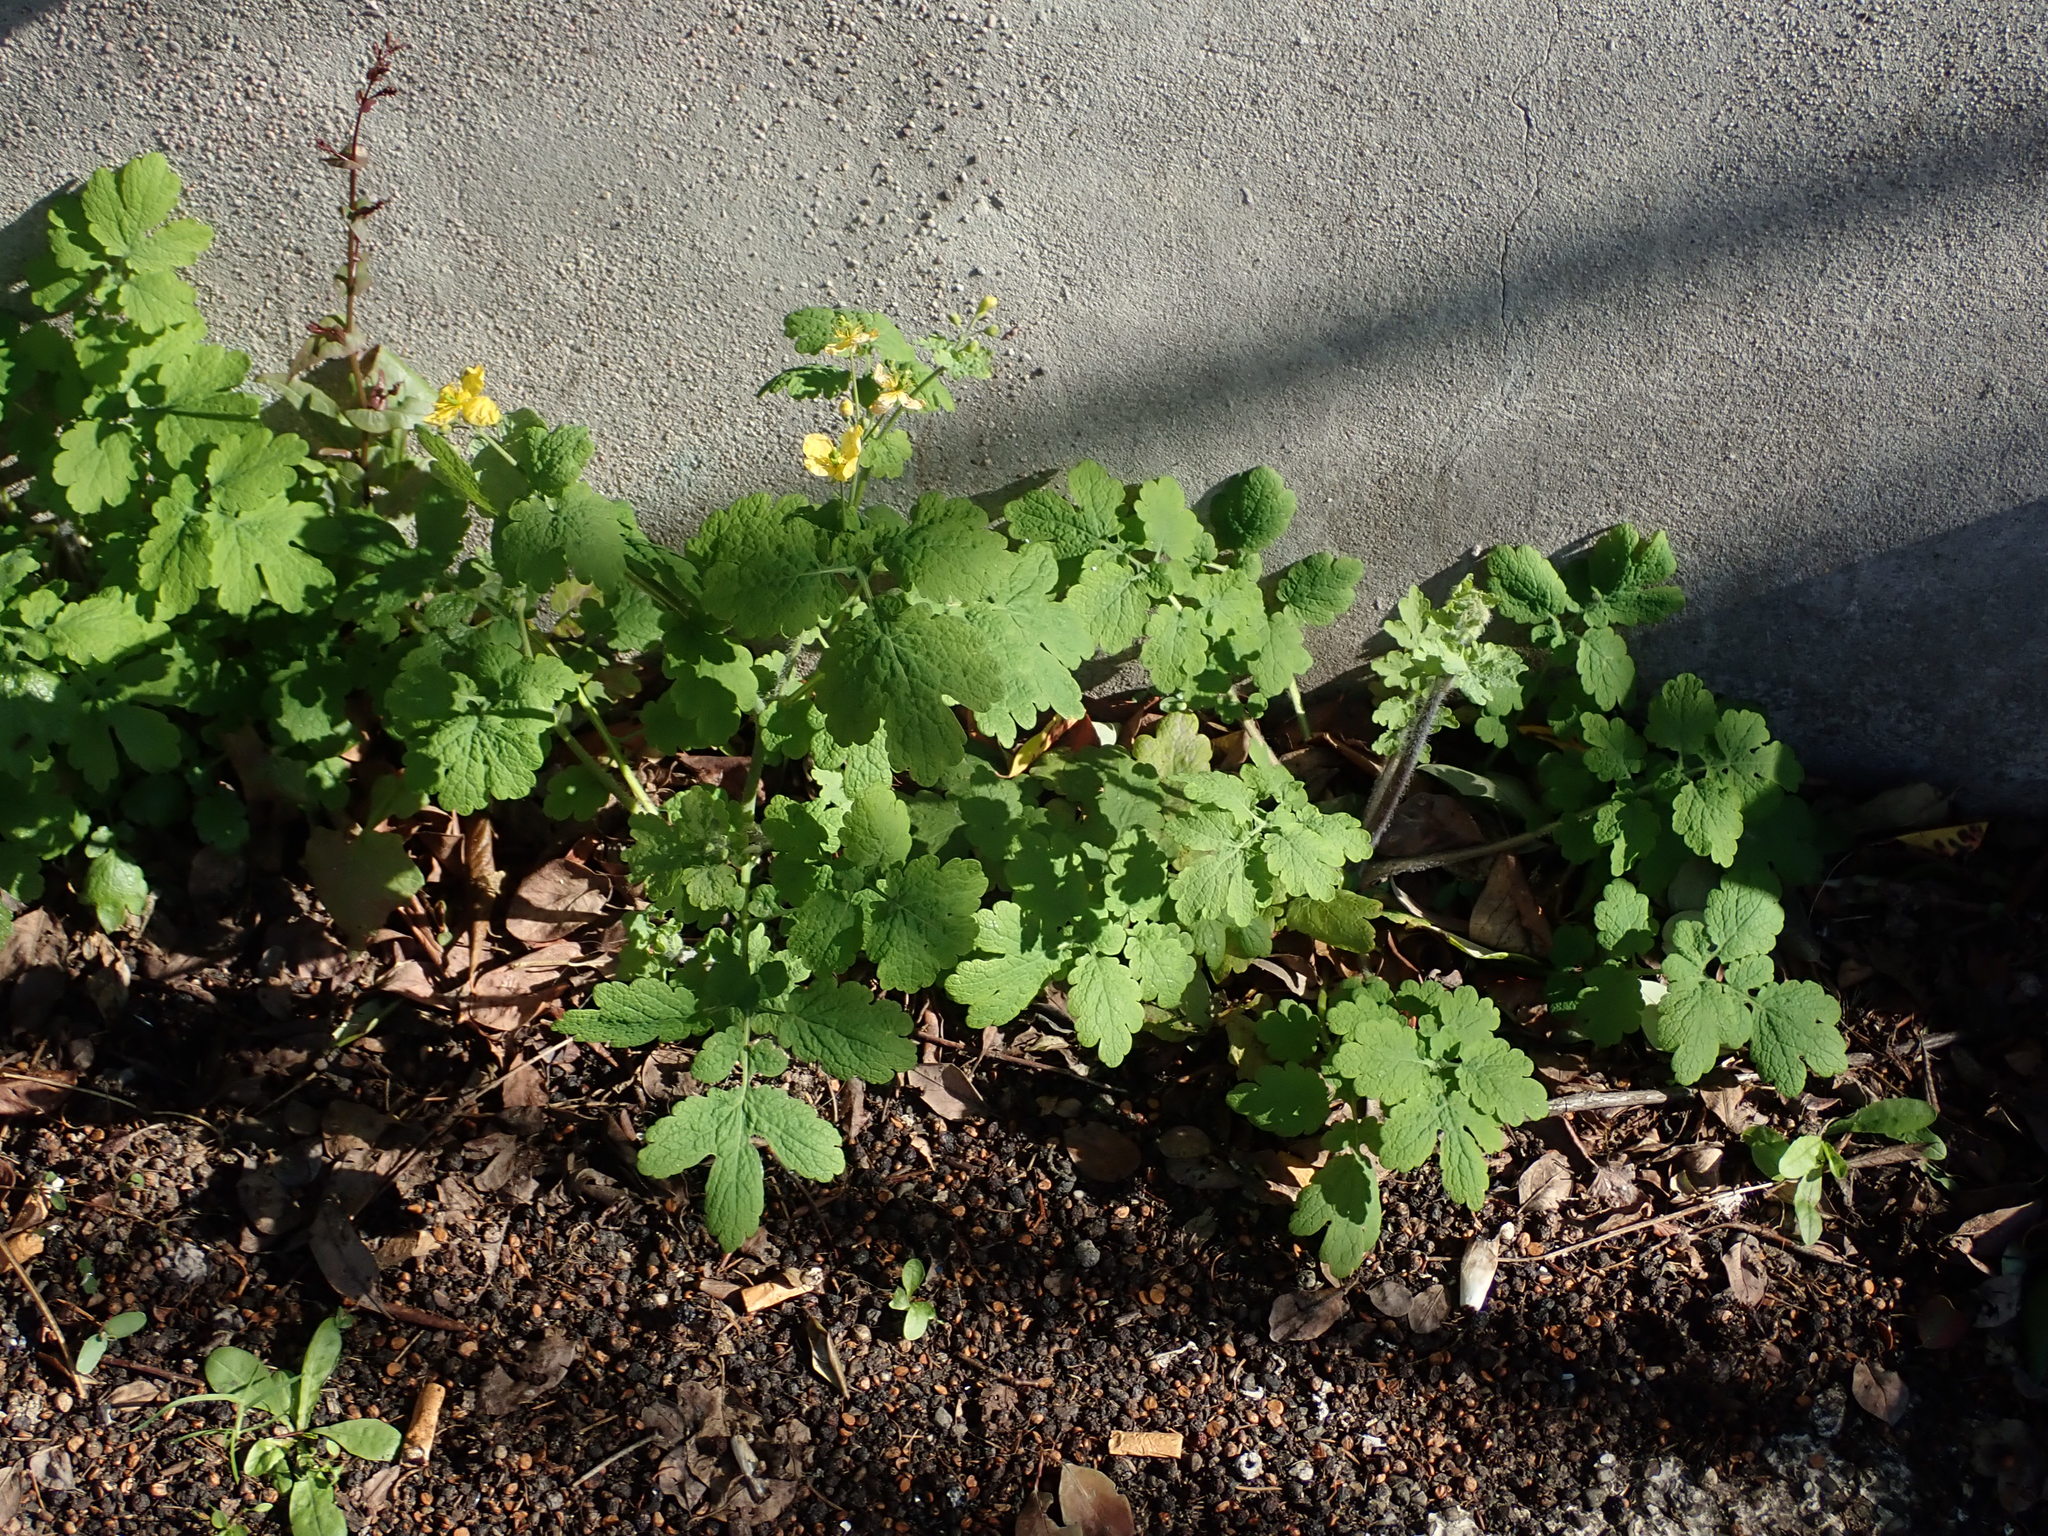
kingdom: Plantae
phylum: Tracheophyta
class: Magnoliopsida
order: Ranunculales
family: Papaveraceae
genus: Chelidonium
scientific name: Chelidonium majus
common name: Greater celandine
